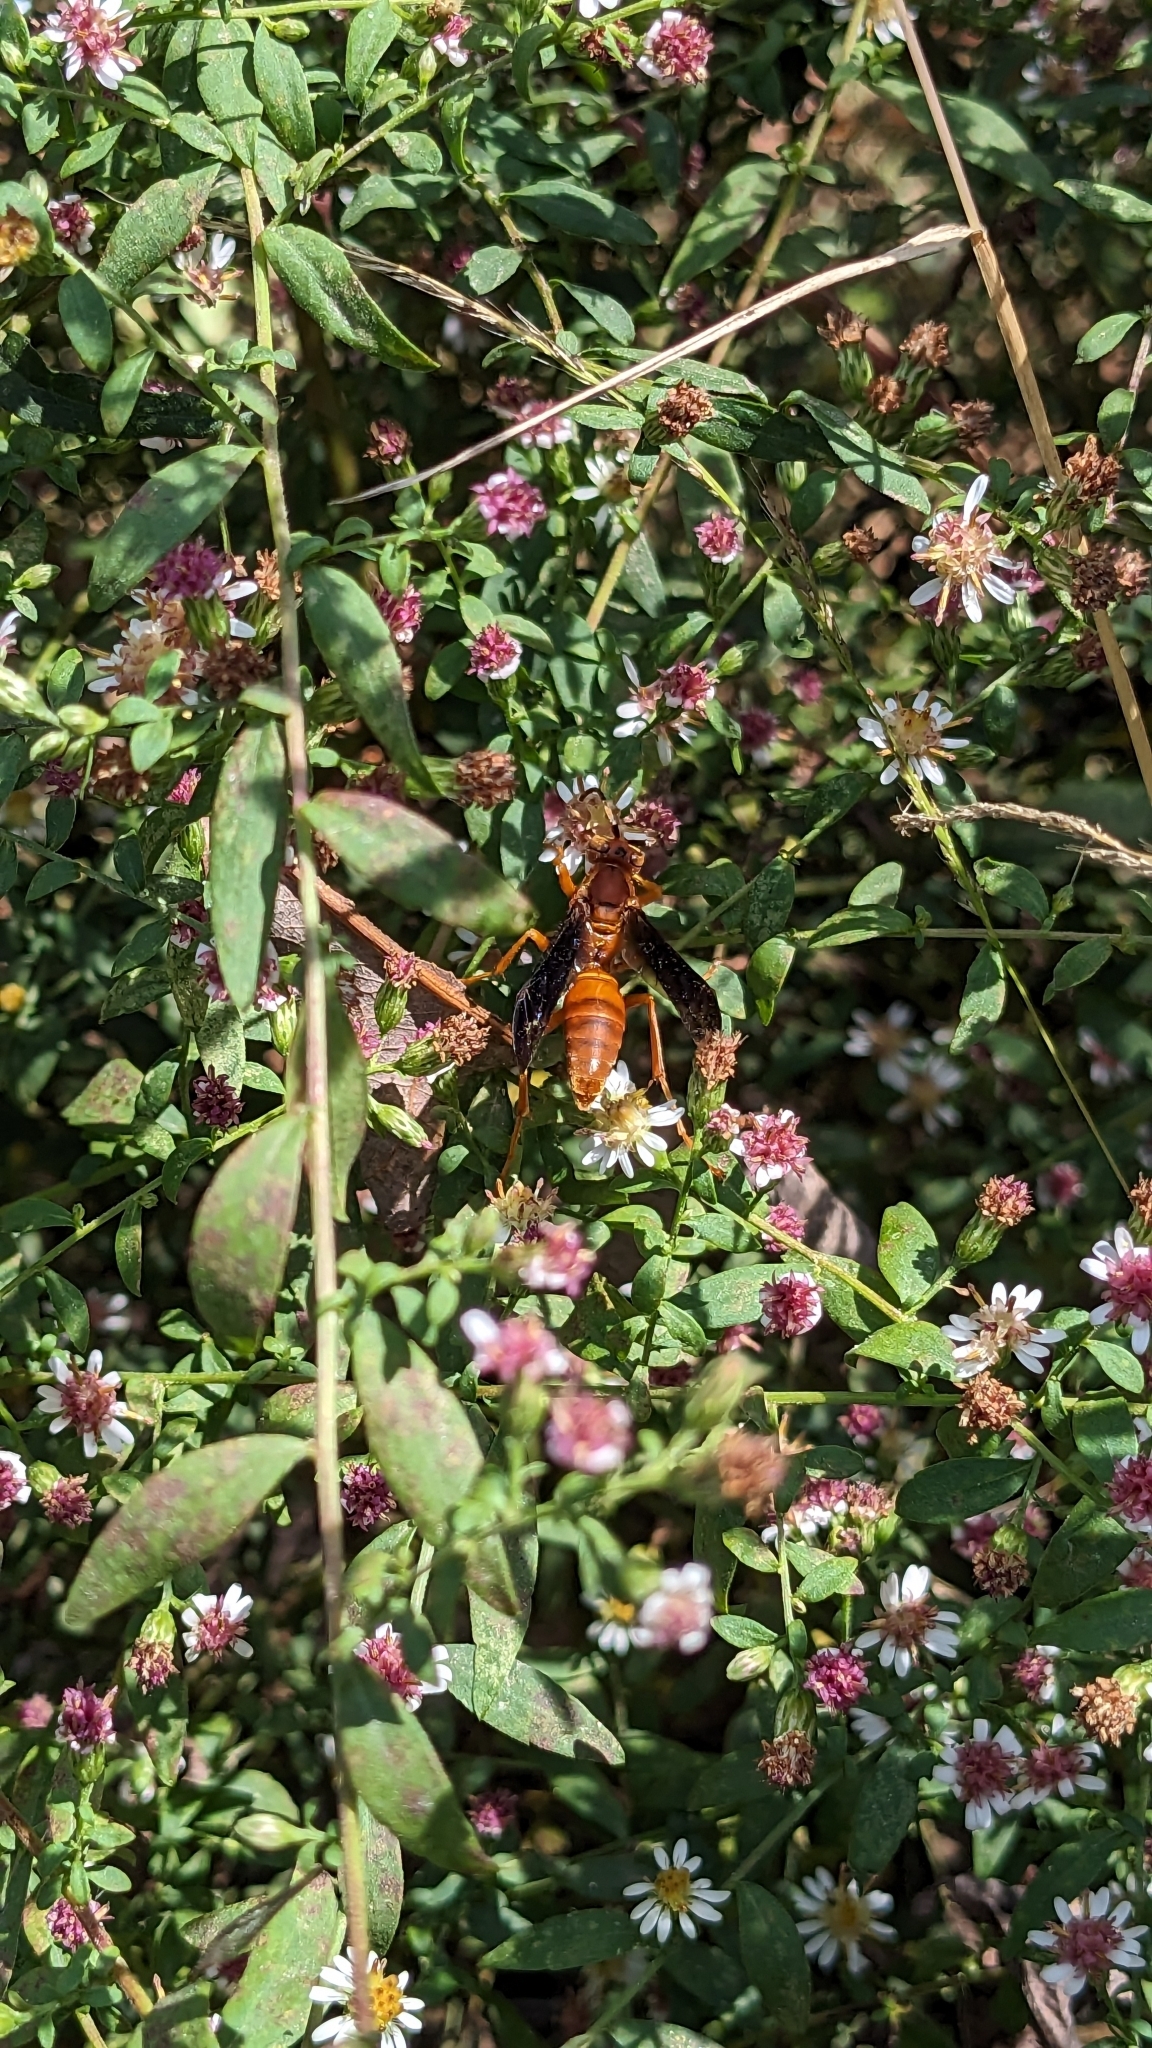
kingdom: Animalia
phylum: Arthropoda
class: Insecta
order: Hymenoptera
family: Eumenidae
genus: Polistes
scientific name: Polistes carolina
